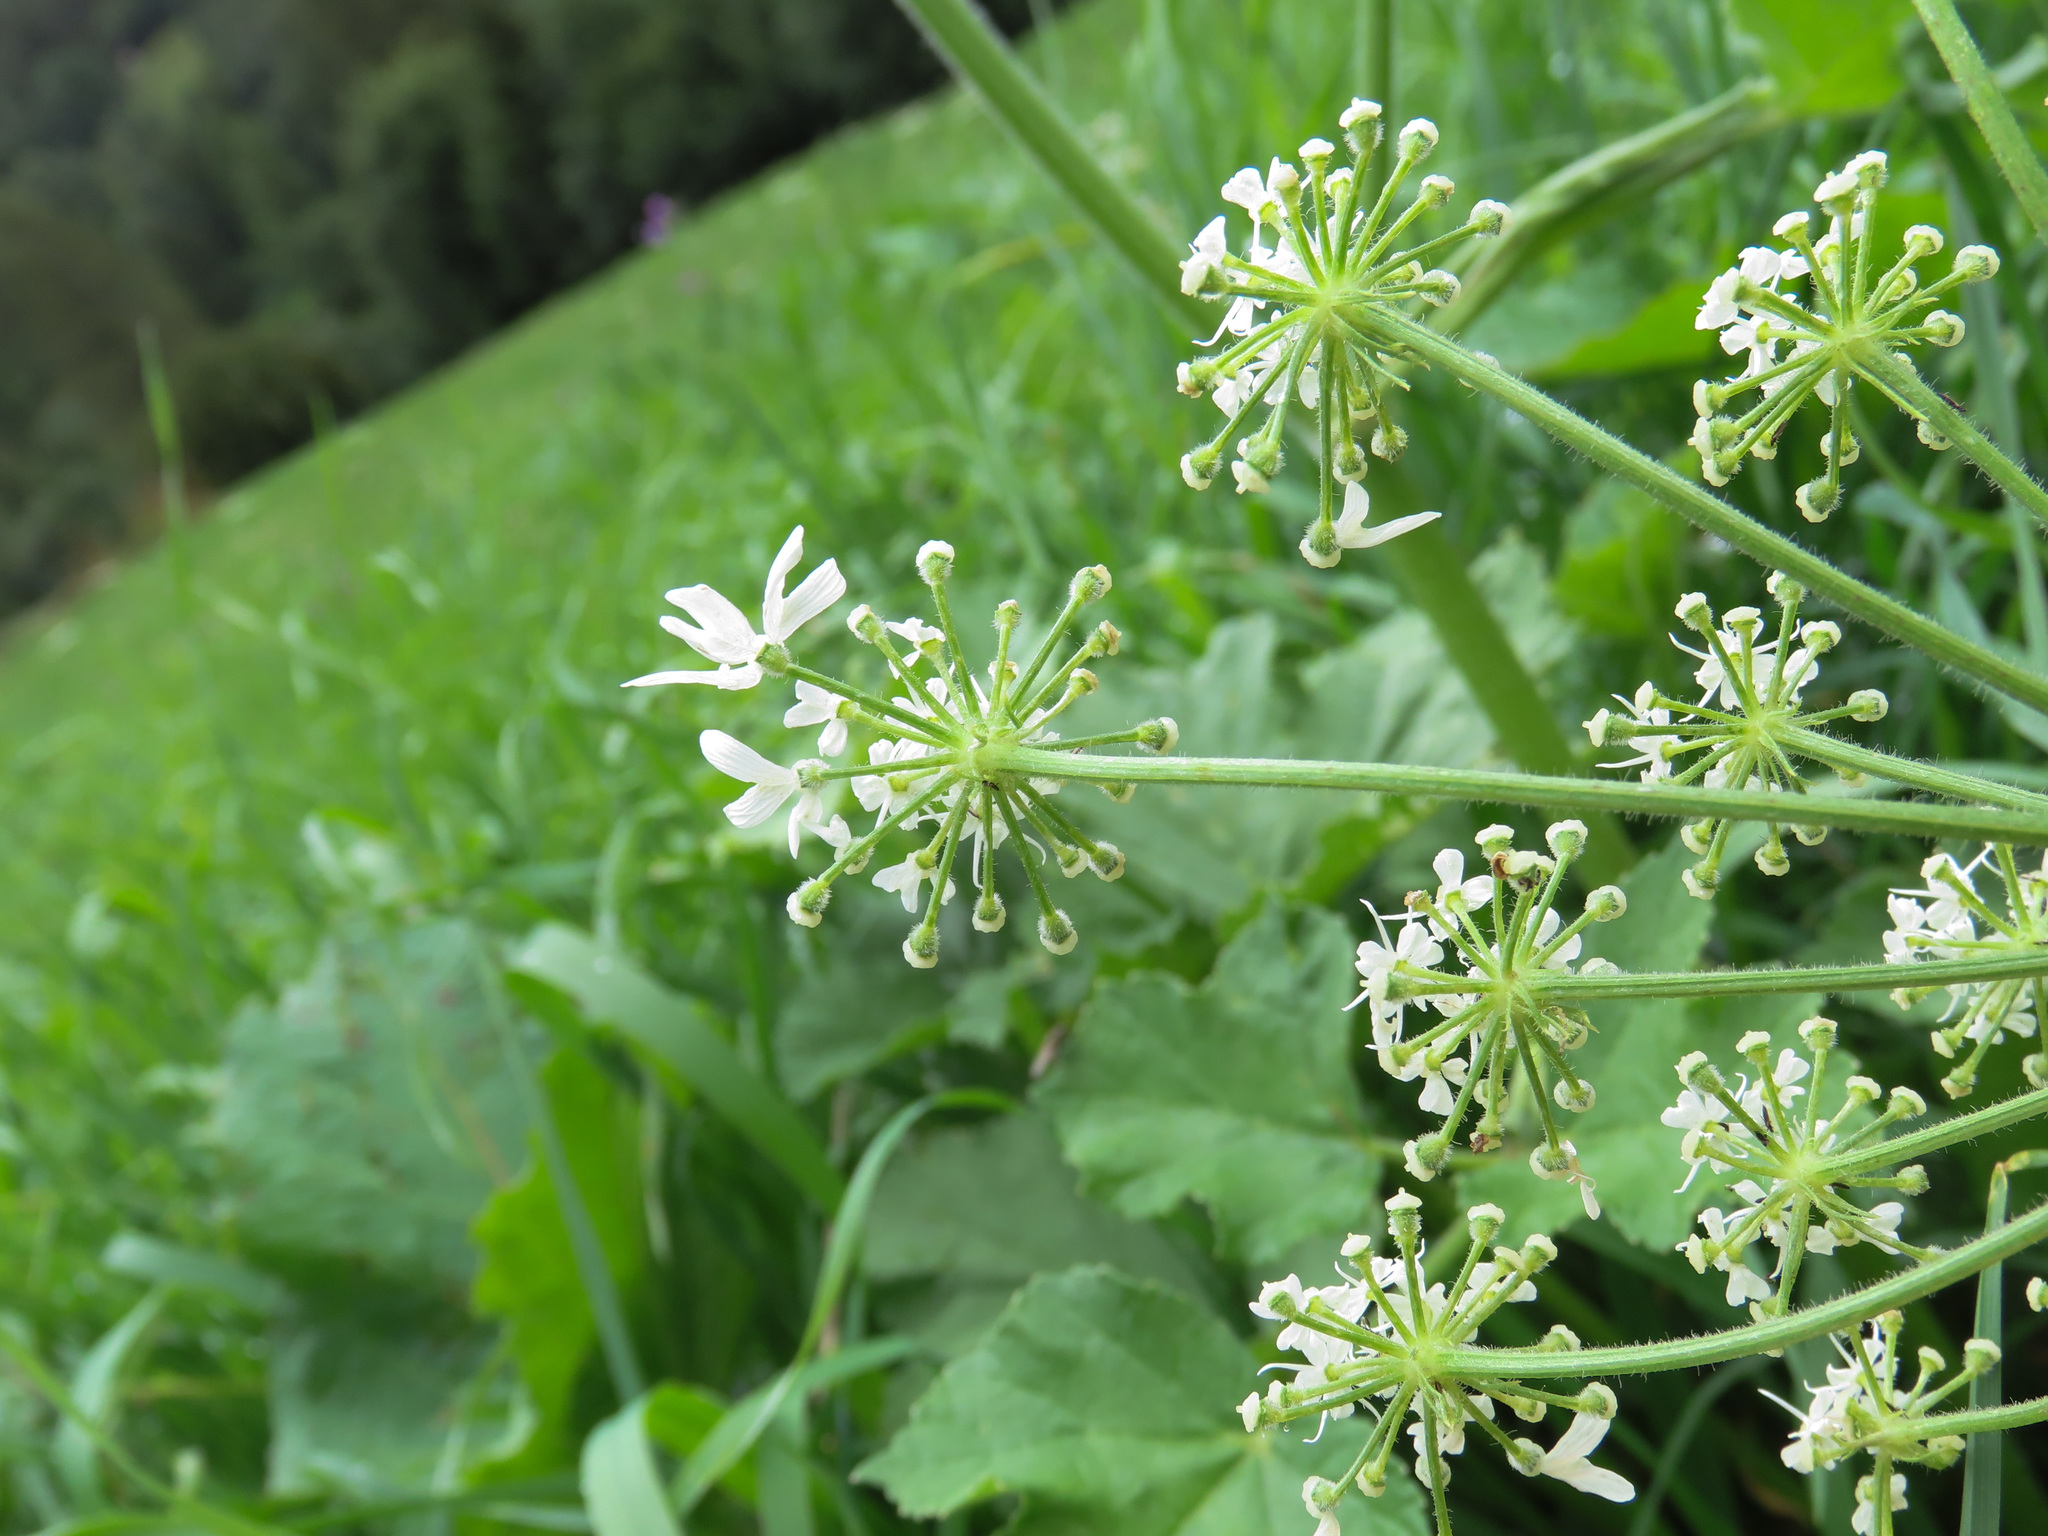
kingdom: Plantae
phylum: Tracheophyta
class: Magnoliopsida
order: Apiales
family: Apiaceae
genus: Heracleum
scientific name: Heracleum sphondylium
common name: Hogweed
